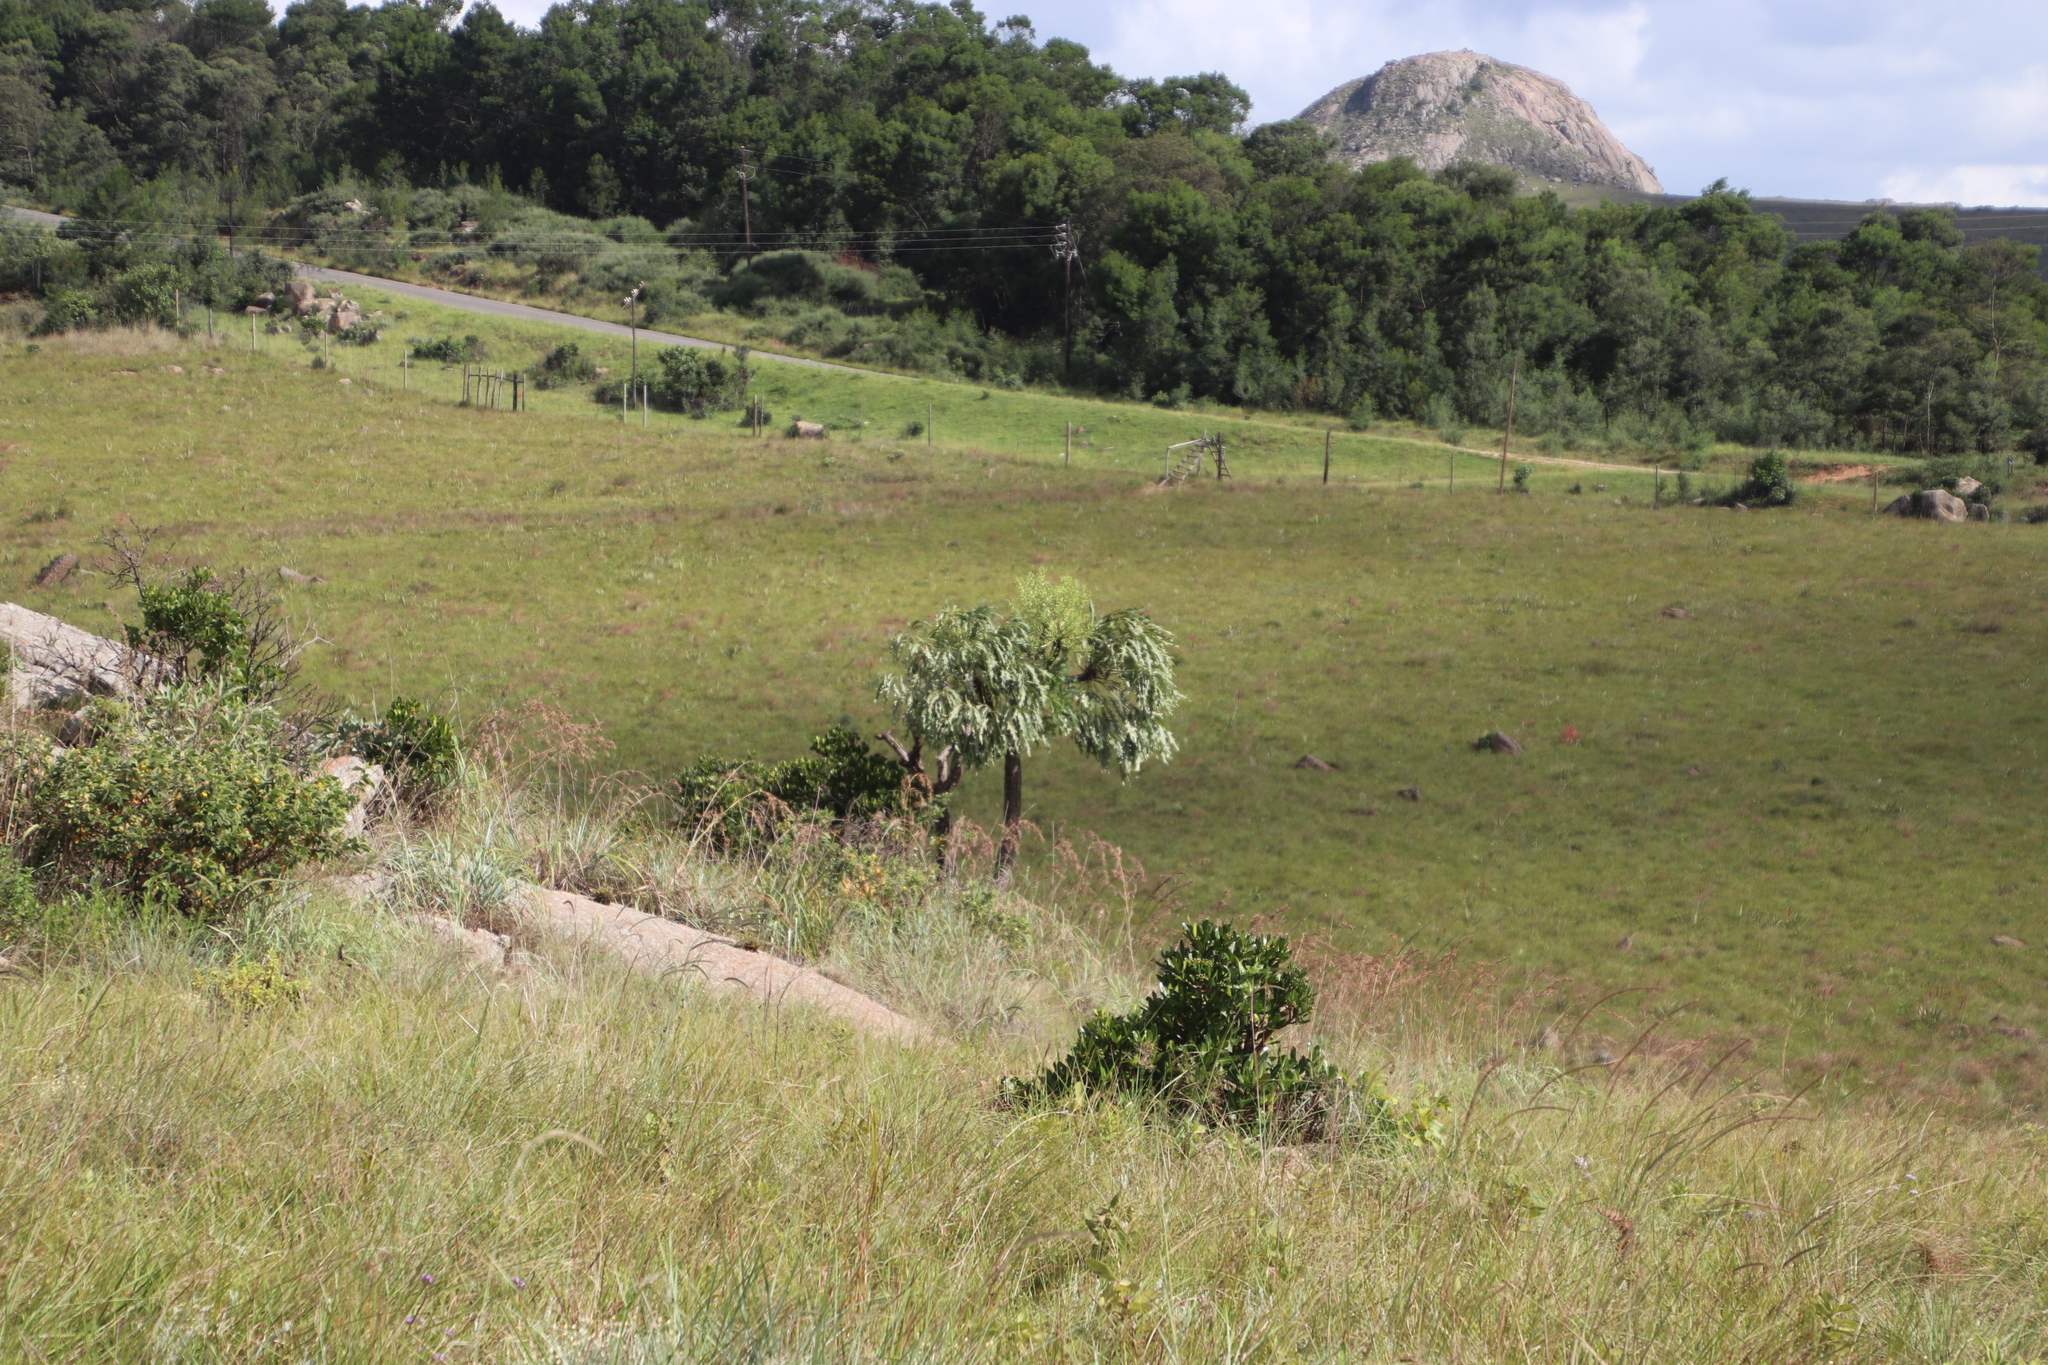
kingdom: Plantae
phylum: Tracheophyta
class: Magnoliopsida
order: Apiales
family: Araliaceae
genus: Cussonia
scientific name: Cussonia paniculata
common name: Cabbagetree
